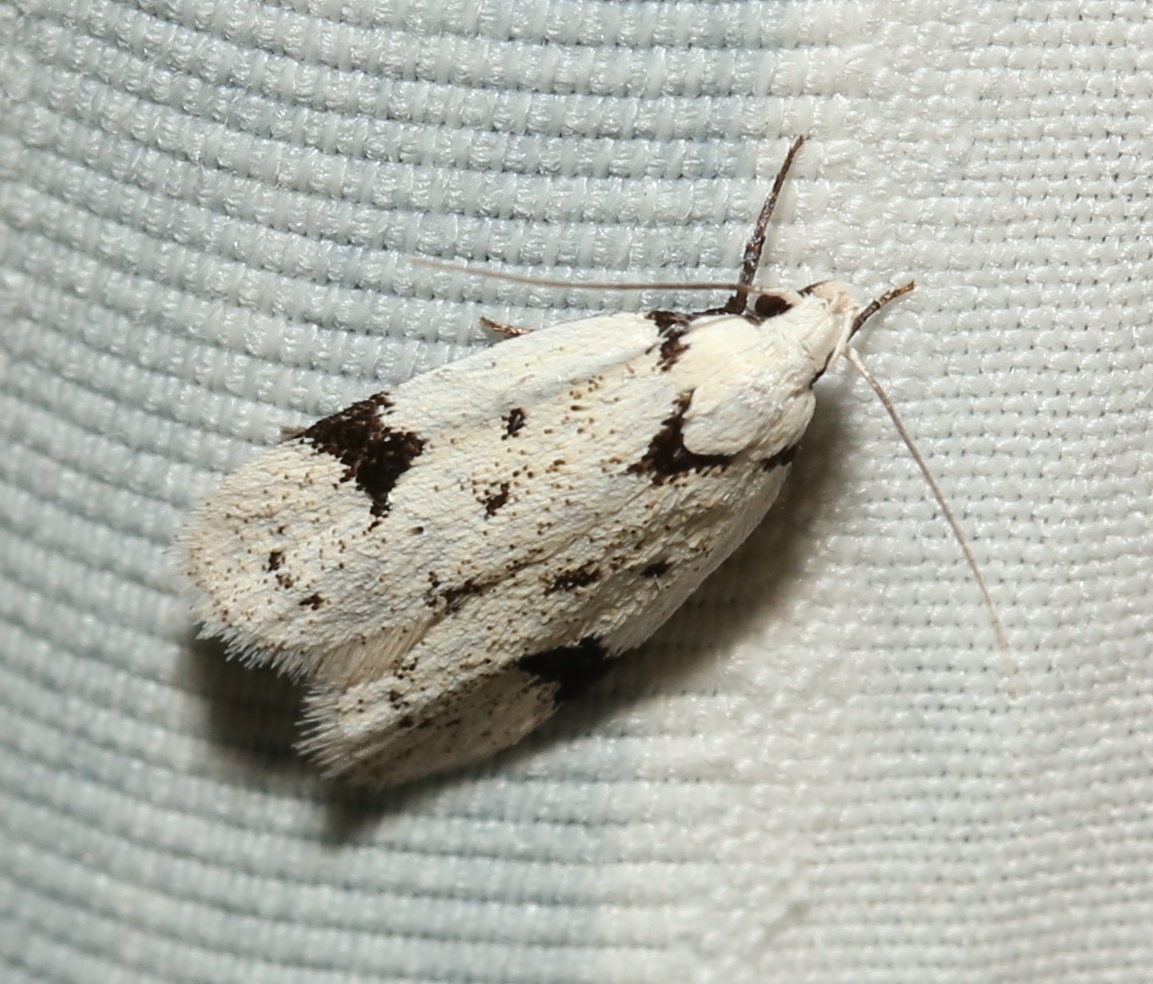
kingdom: Animalia
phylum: Arthropoda
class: Insecta
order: Lepidoptera
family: Oecophoridae
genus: Inga
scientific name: Inga sparsiciliella
